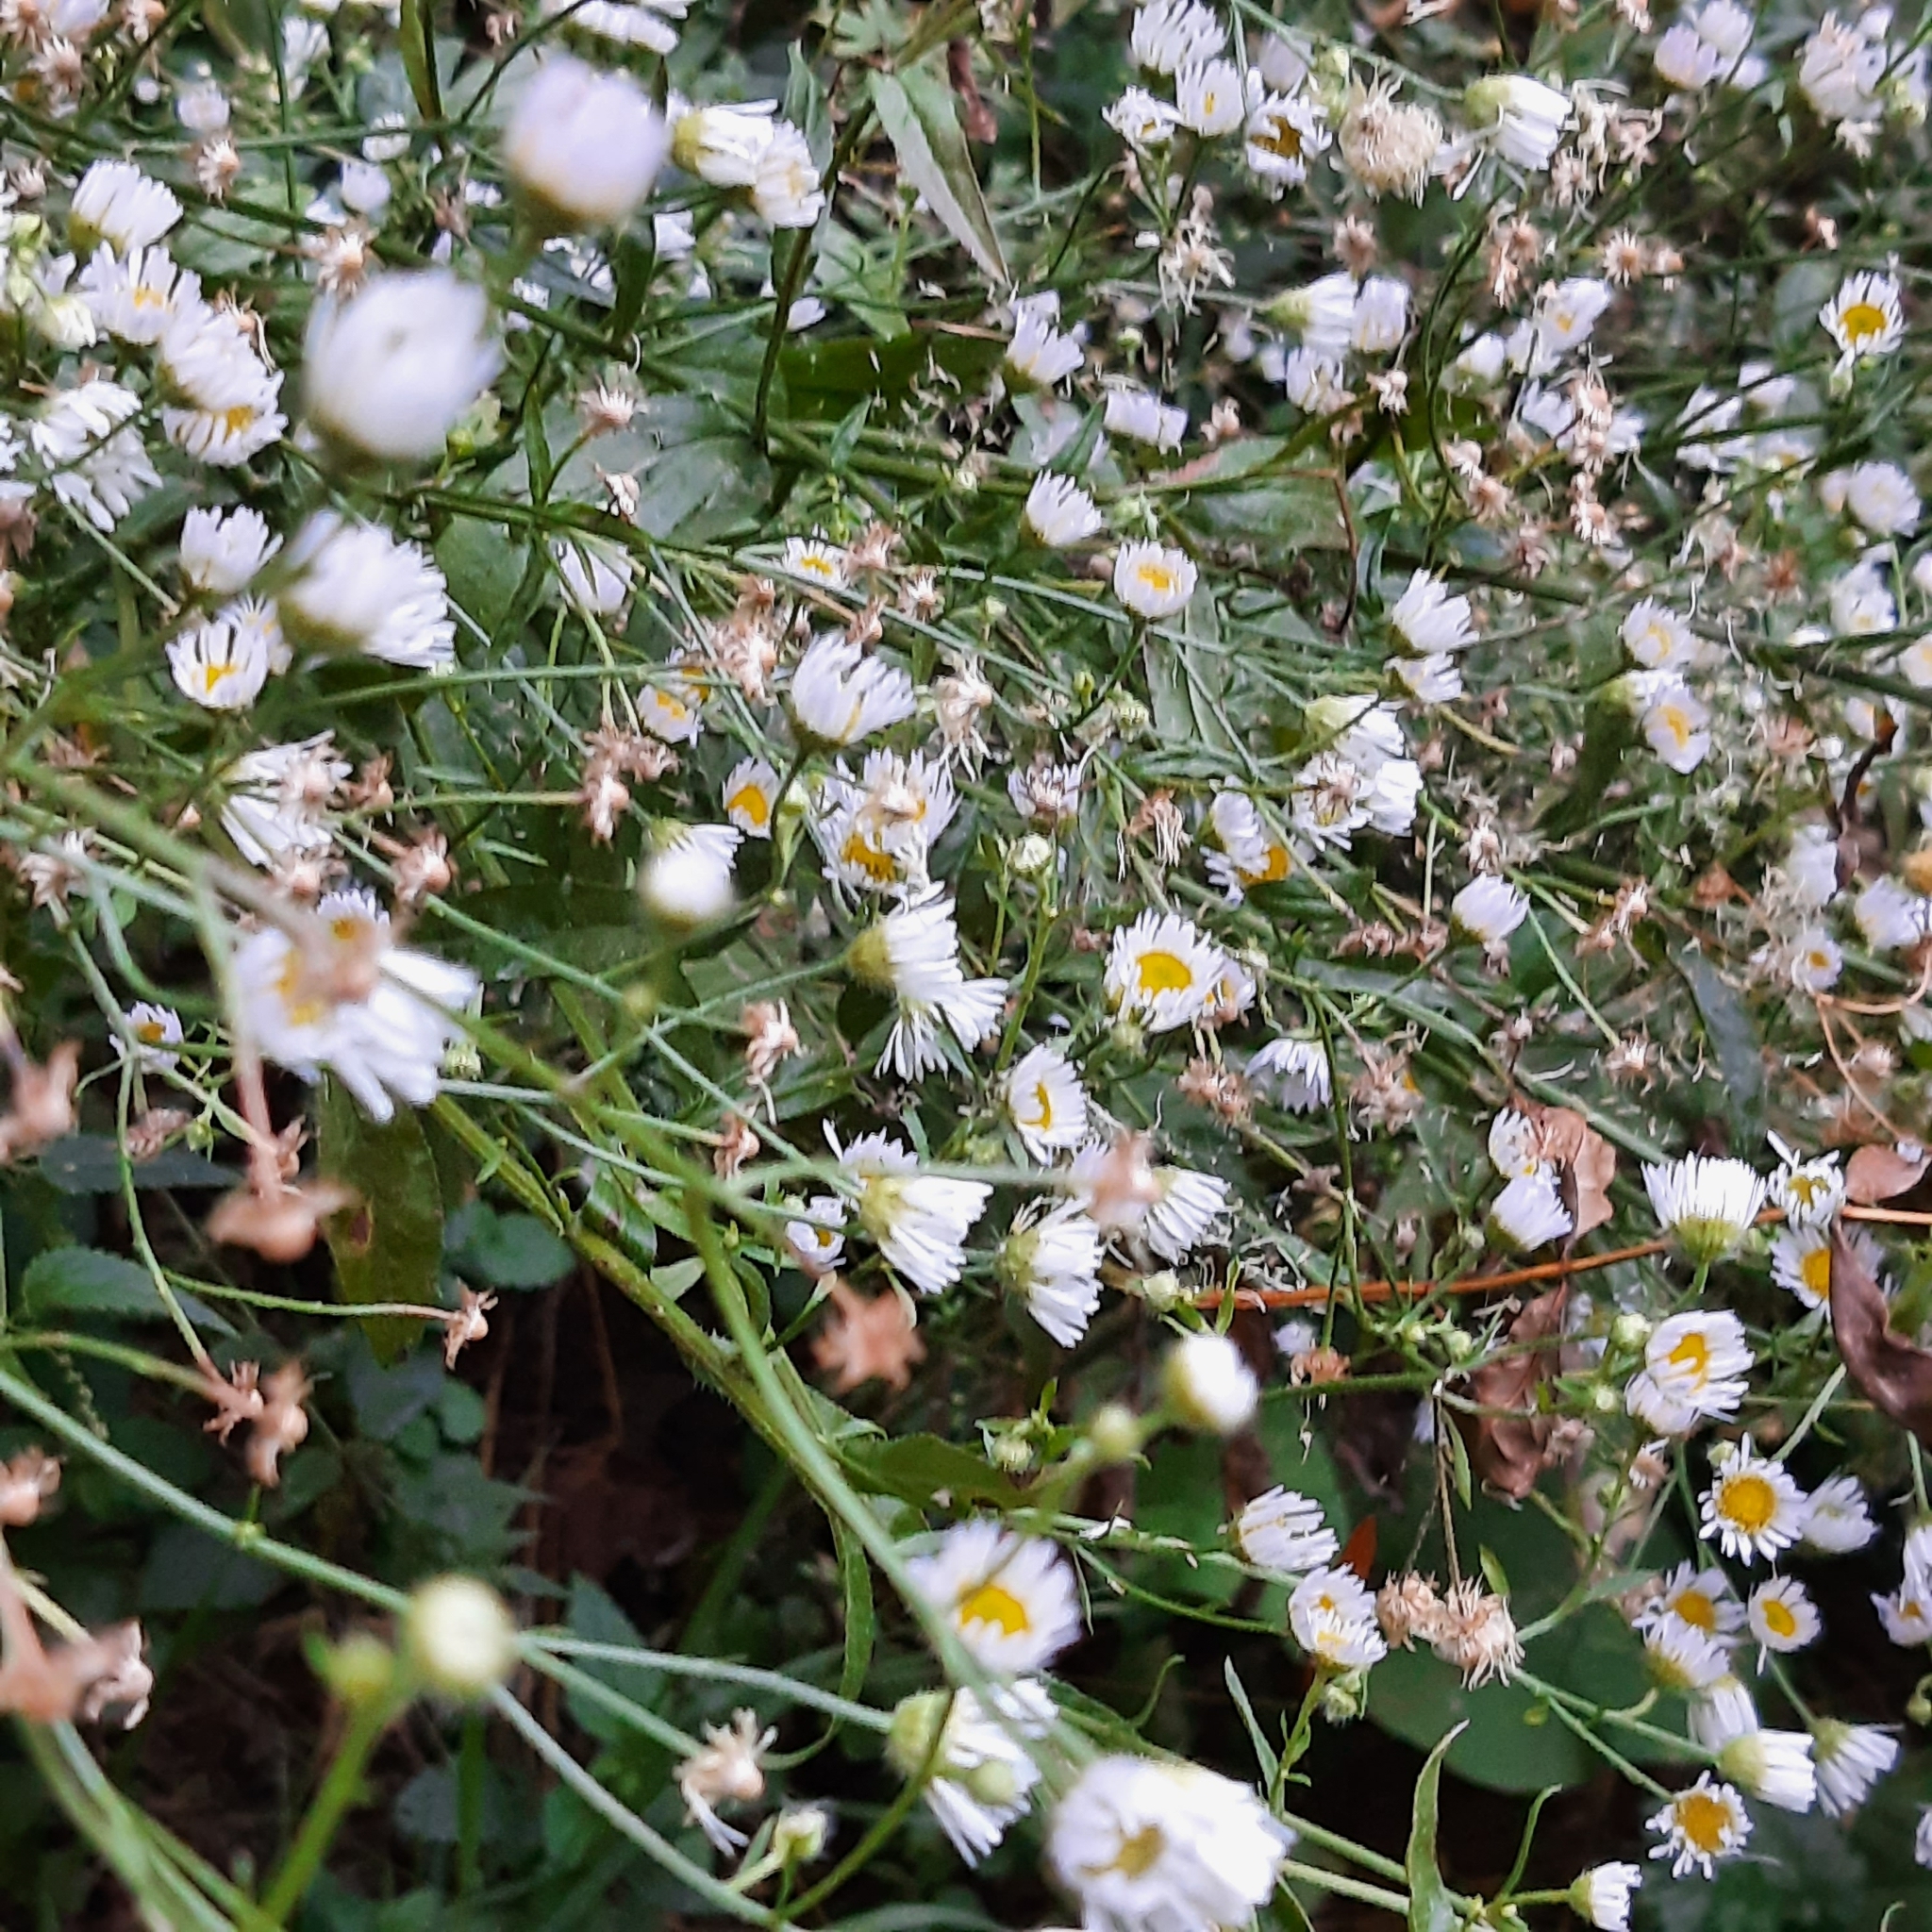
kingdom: Plantae
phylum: Tracheophyta
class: Magnoliopsida
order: Asterales
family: Asteraceae
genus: Erigeron
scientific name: Erigeron annuus
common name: Tall fleabane
